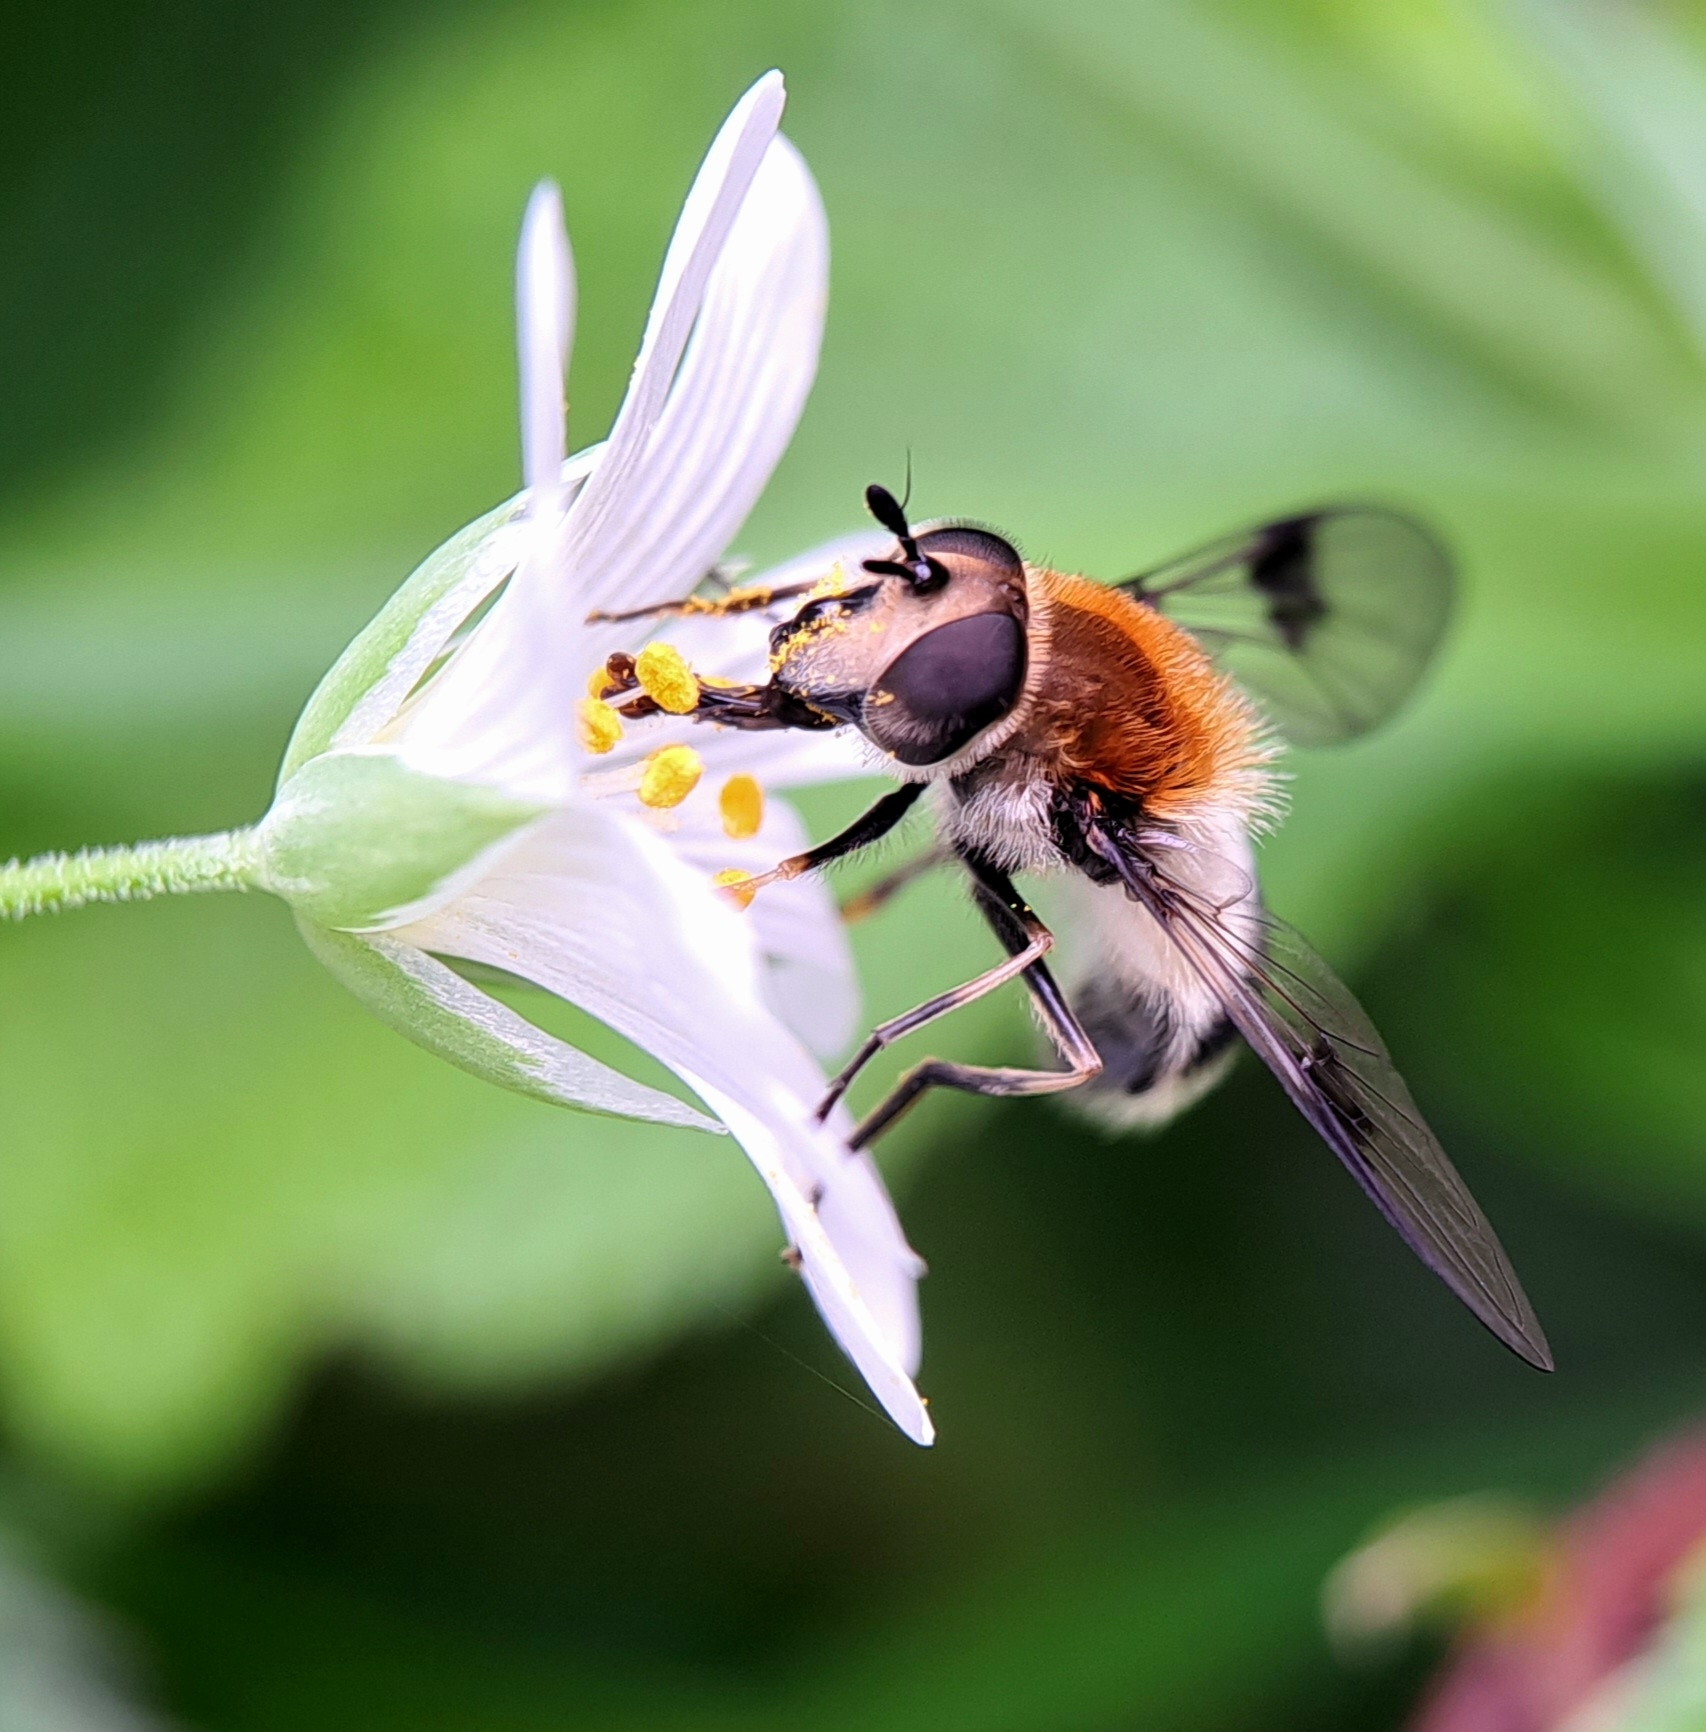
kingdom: Animalia
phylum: Arthropoda
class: Insecta
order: Diptera
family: Syrphidae
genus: Leucozona
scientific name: Leucozona lucorum
